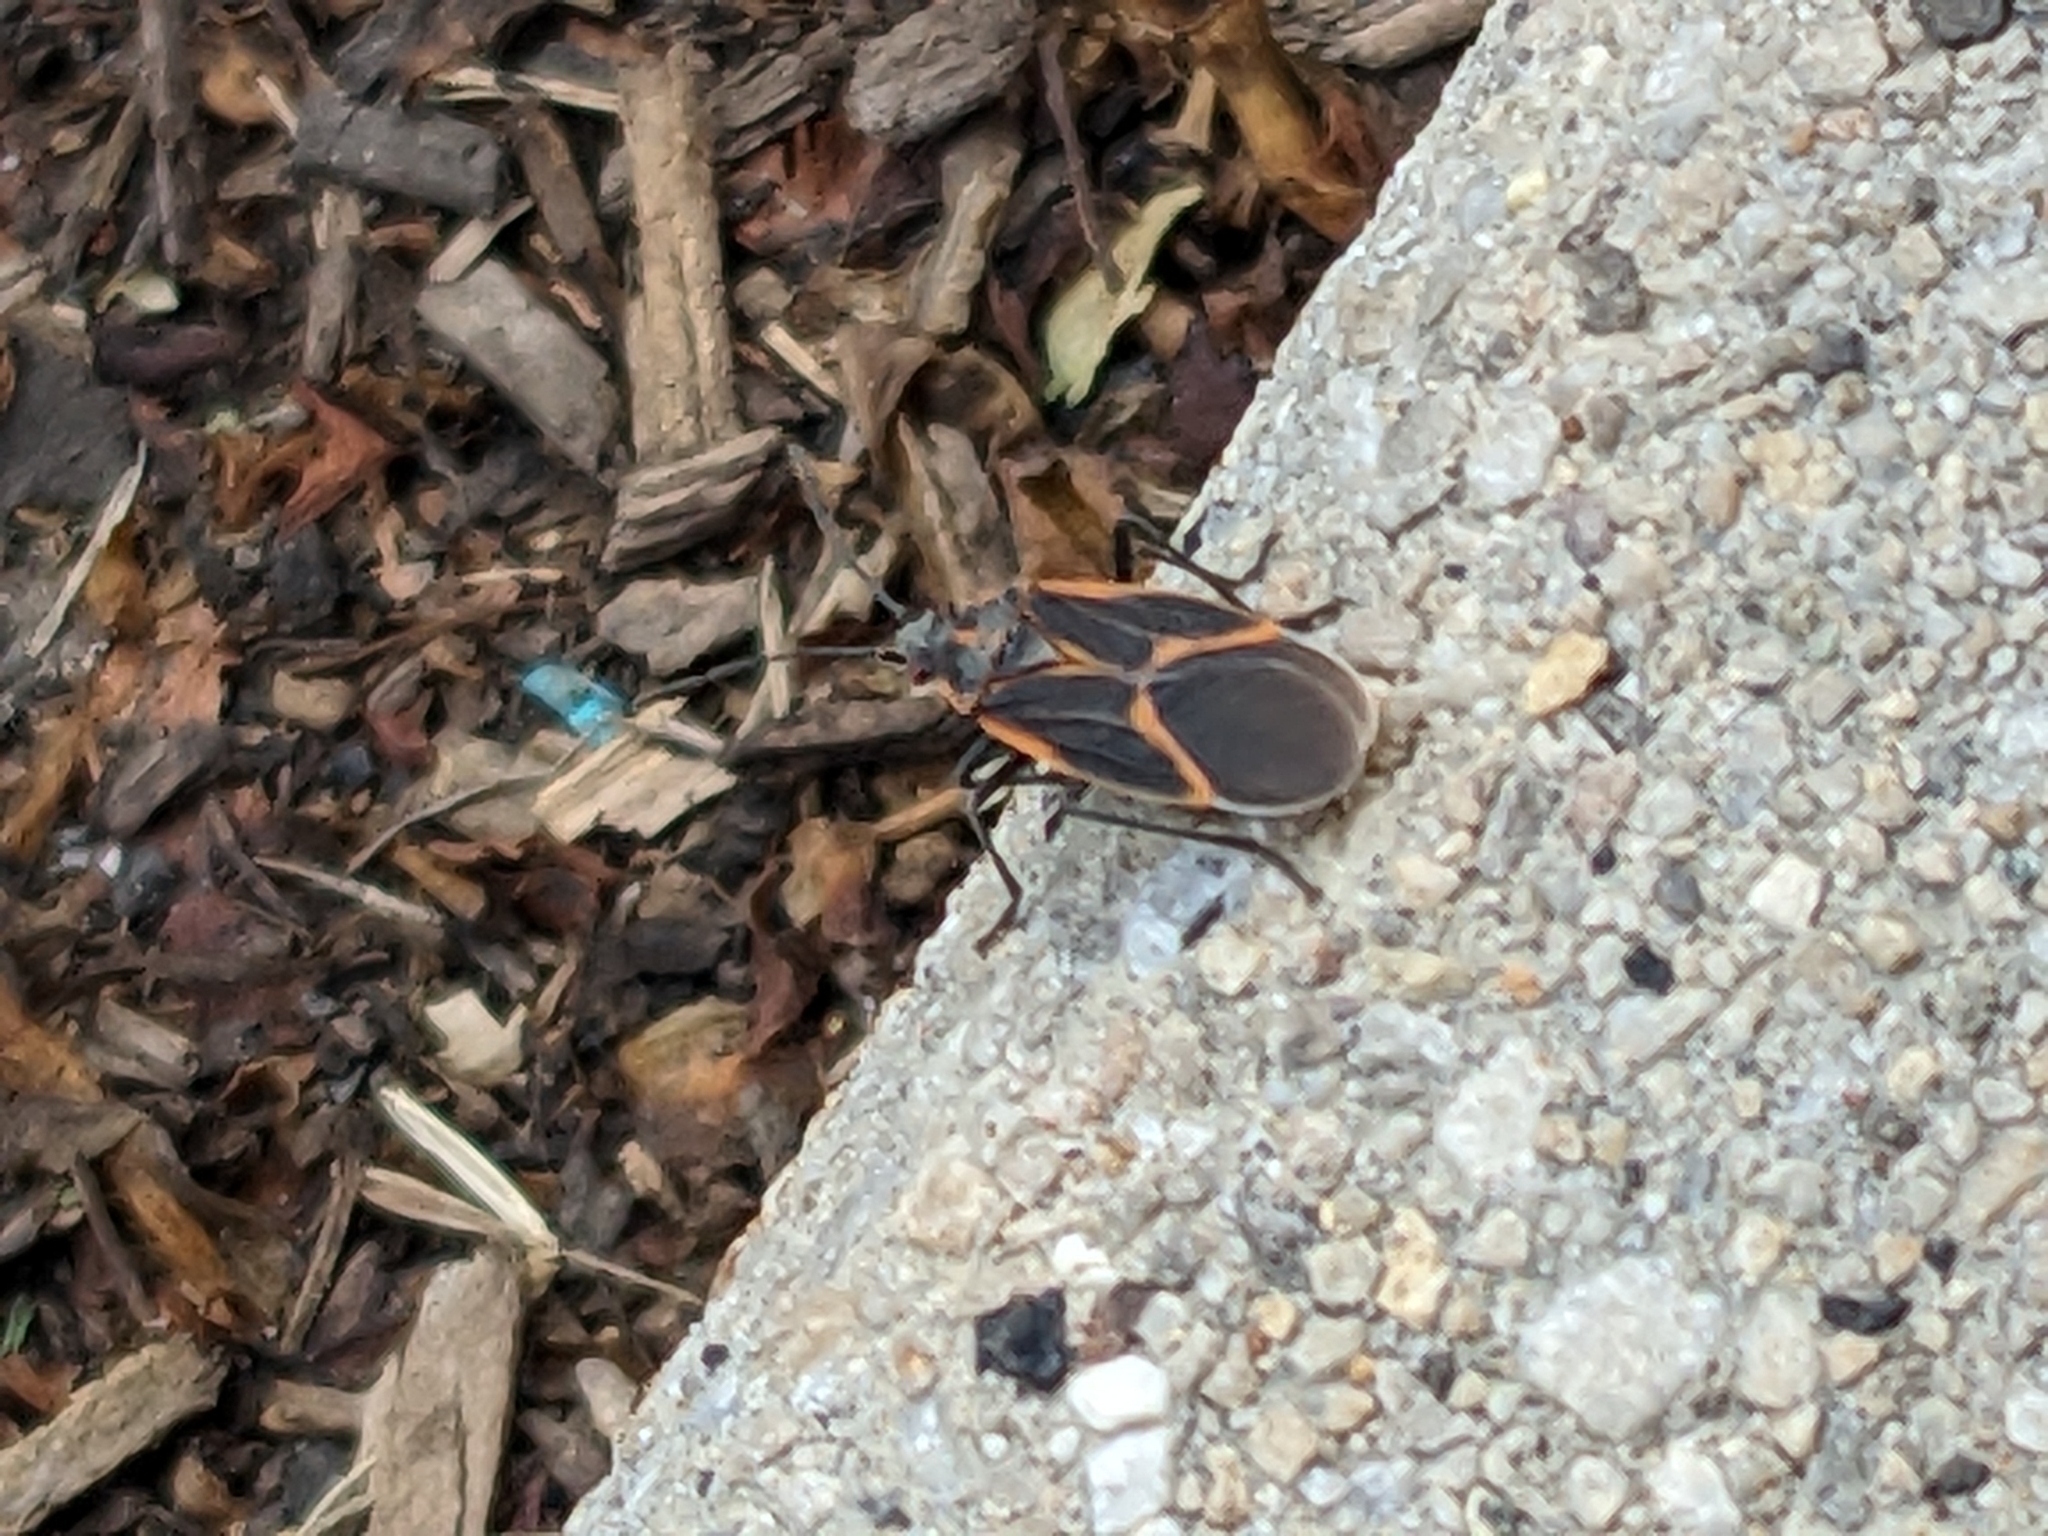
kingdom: Animalia
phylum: Arthropoda
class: Insecta
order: Hemiptera
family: Rhopalidae
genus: Boisea
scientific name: Boisea trivittata
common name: Boxelder bug
